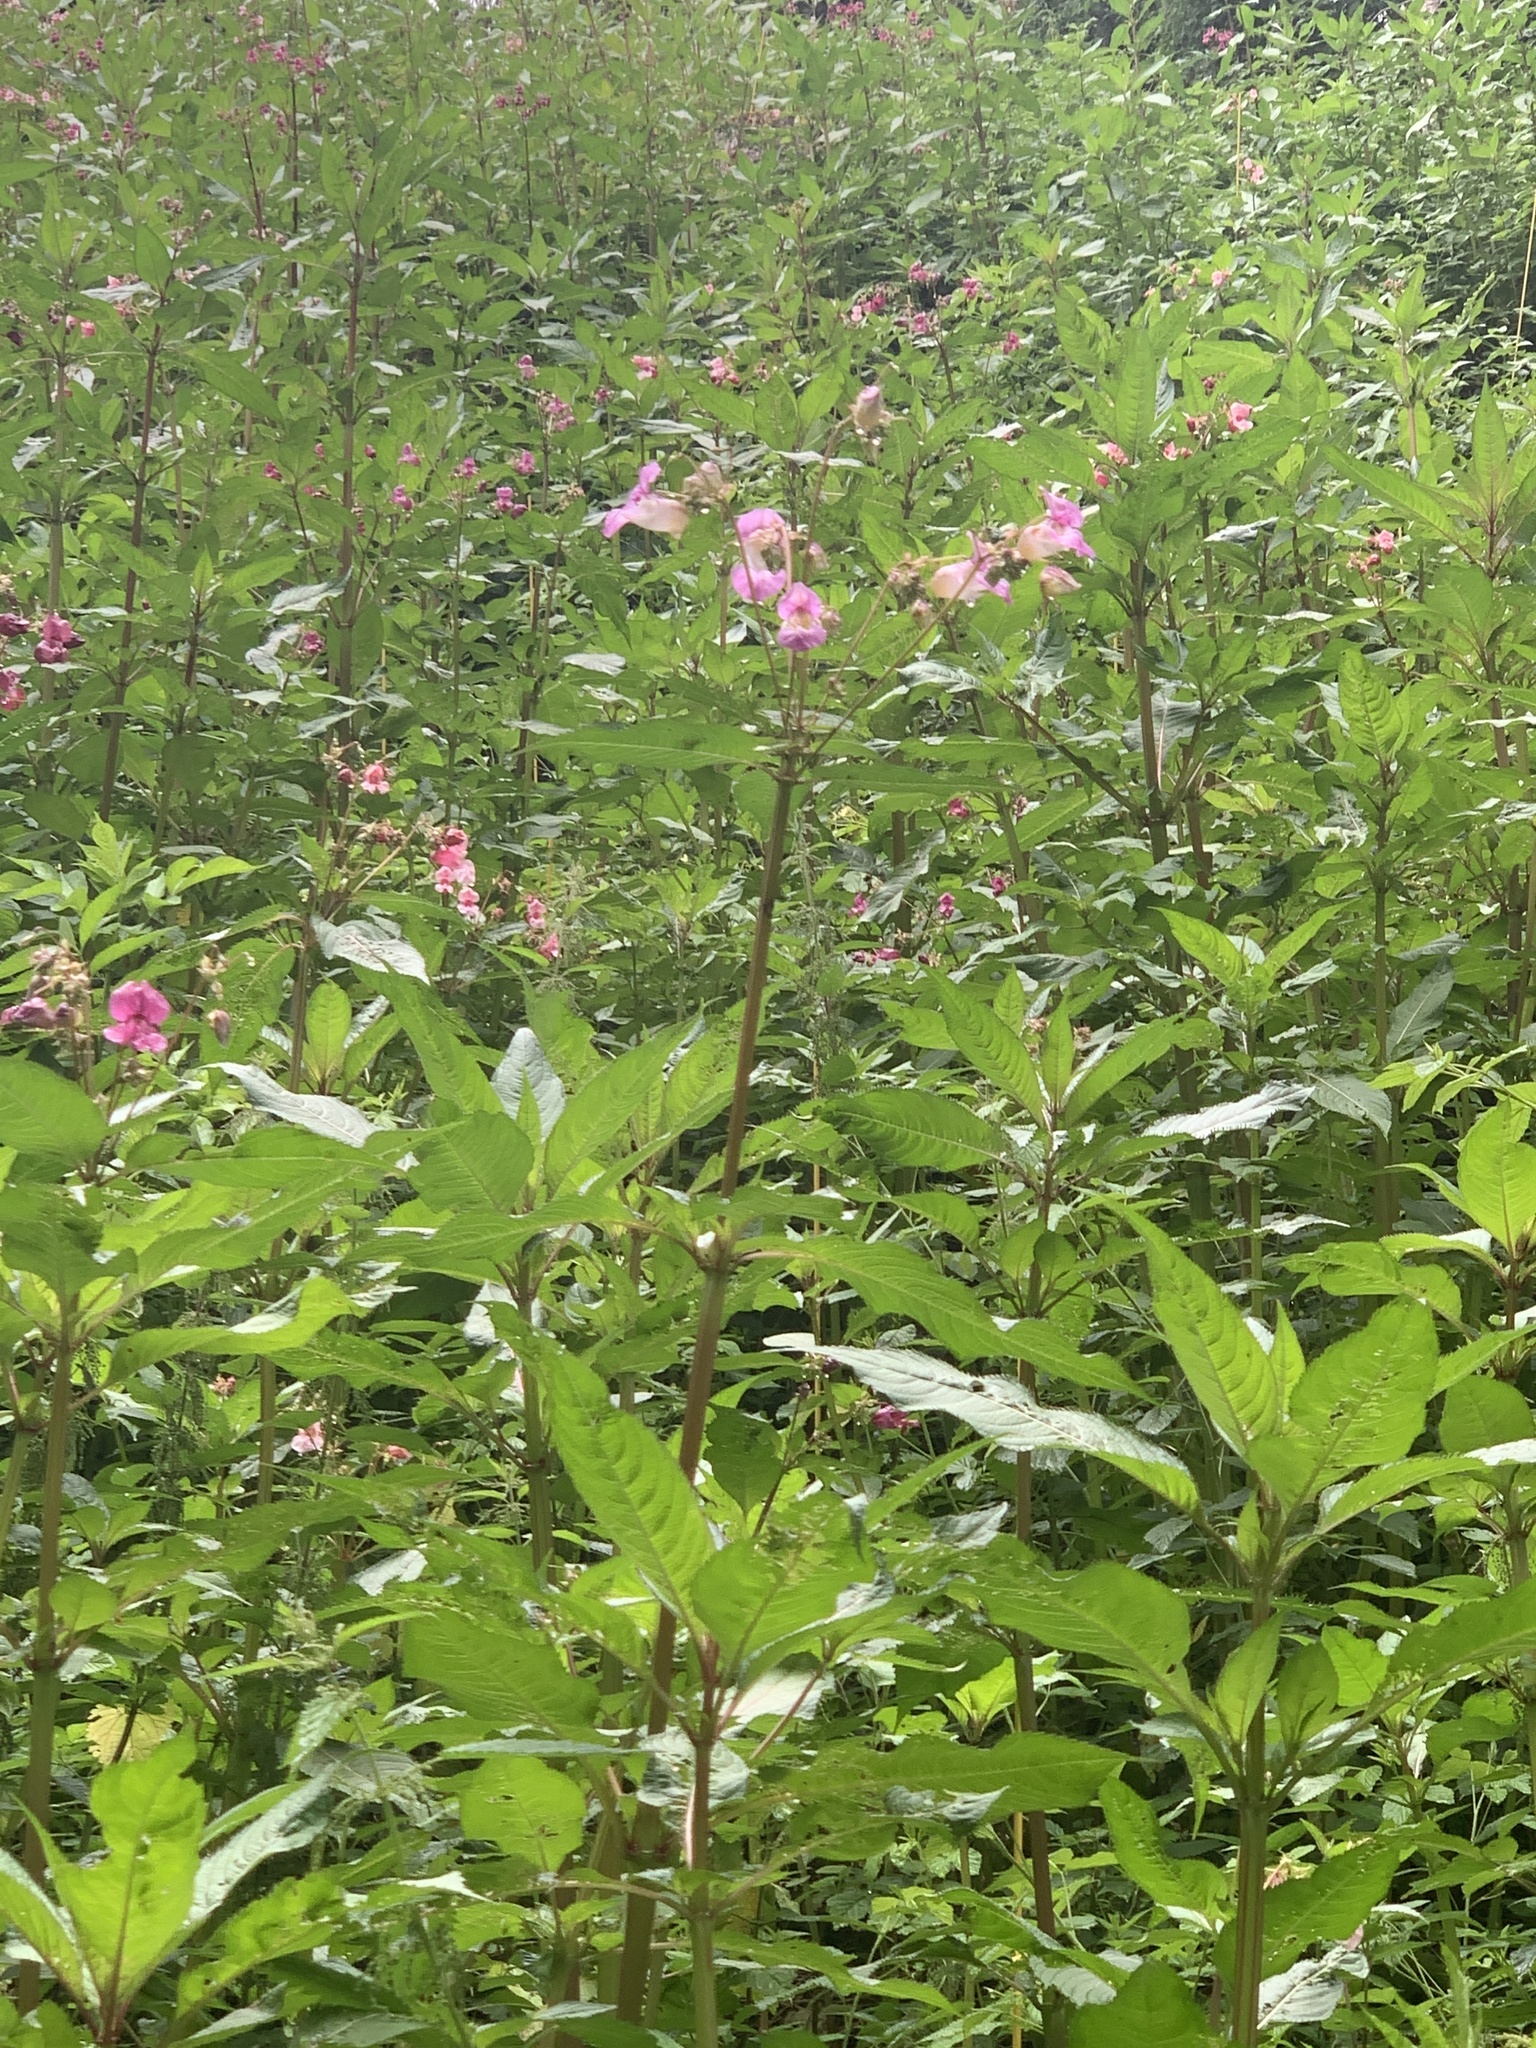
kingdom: Plantae
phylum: Tracheophyta
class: Magnoliopsida
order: Ericales
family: Balsaminaceae
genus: Impatiens
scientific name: Impatiens glandulifera
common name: Himalayan balsam
